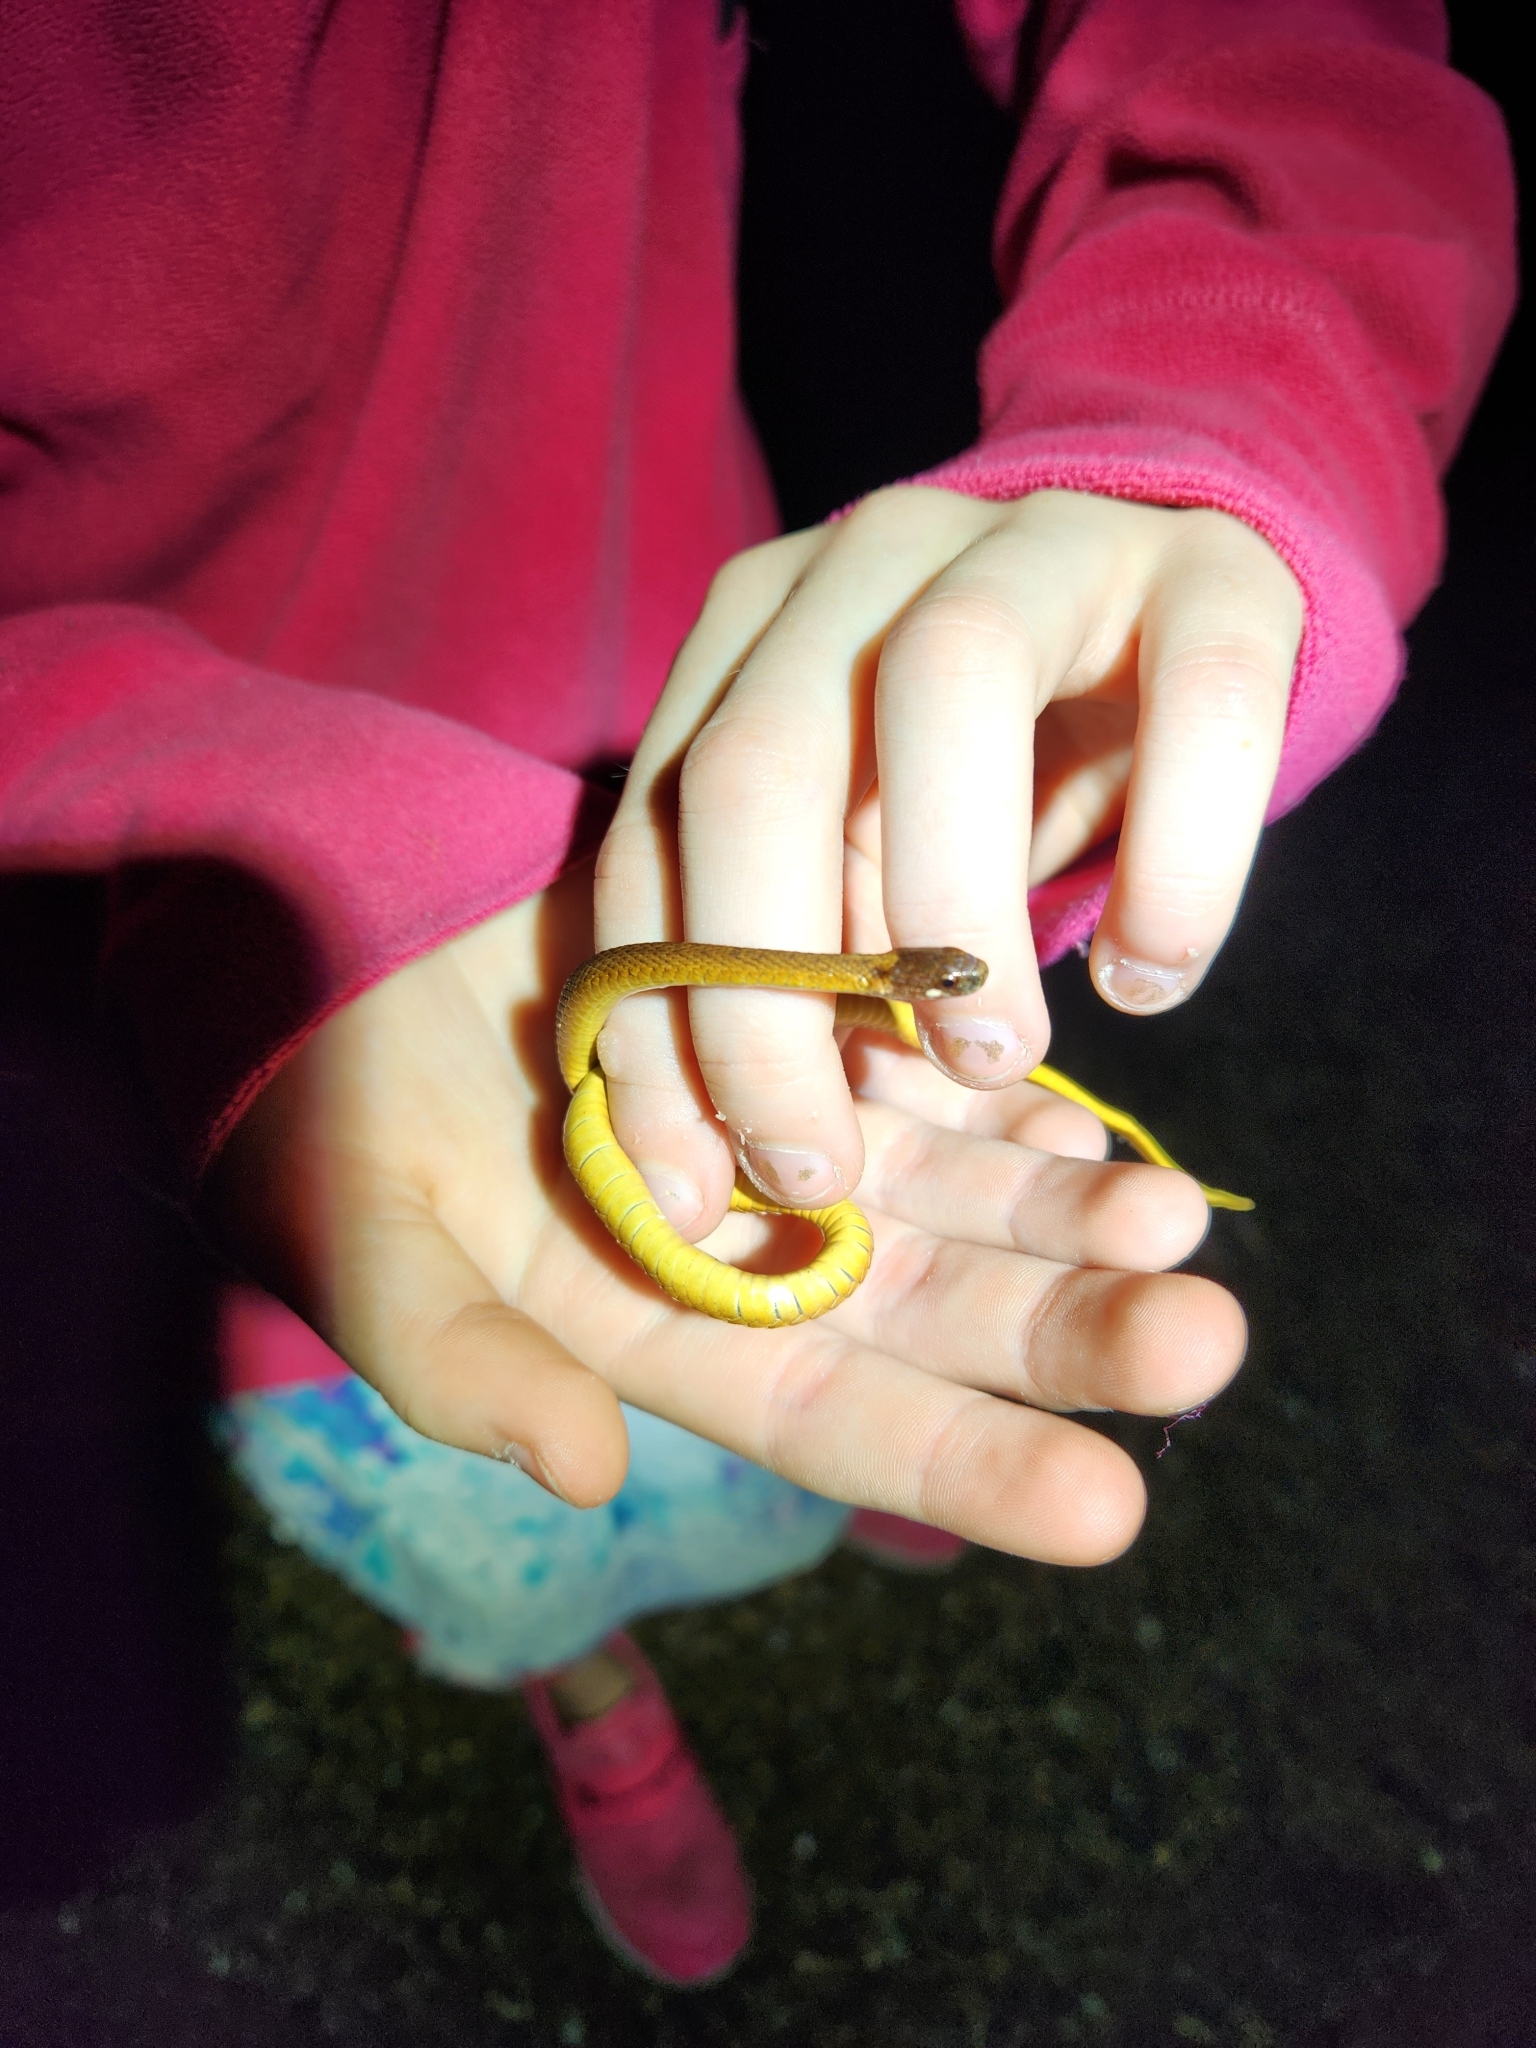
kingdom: Animalia
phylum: Chordata
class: Squamata
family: Colubridae
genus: Storeria
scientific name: Storeria occipitomaculata
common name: Redbelly snake
